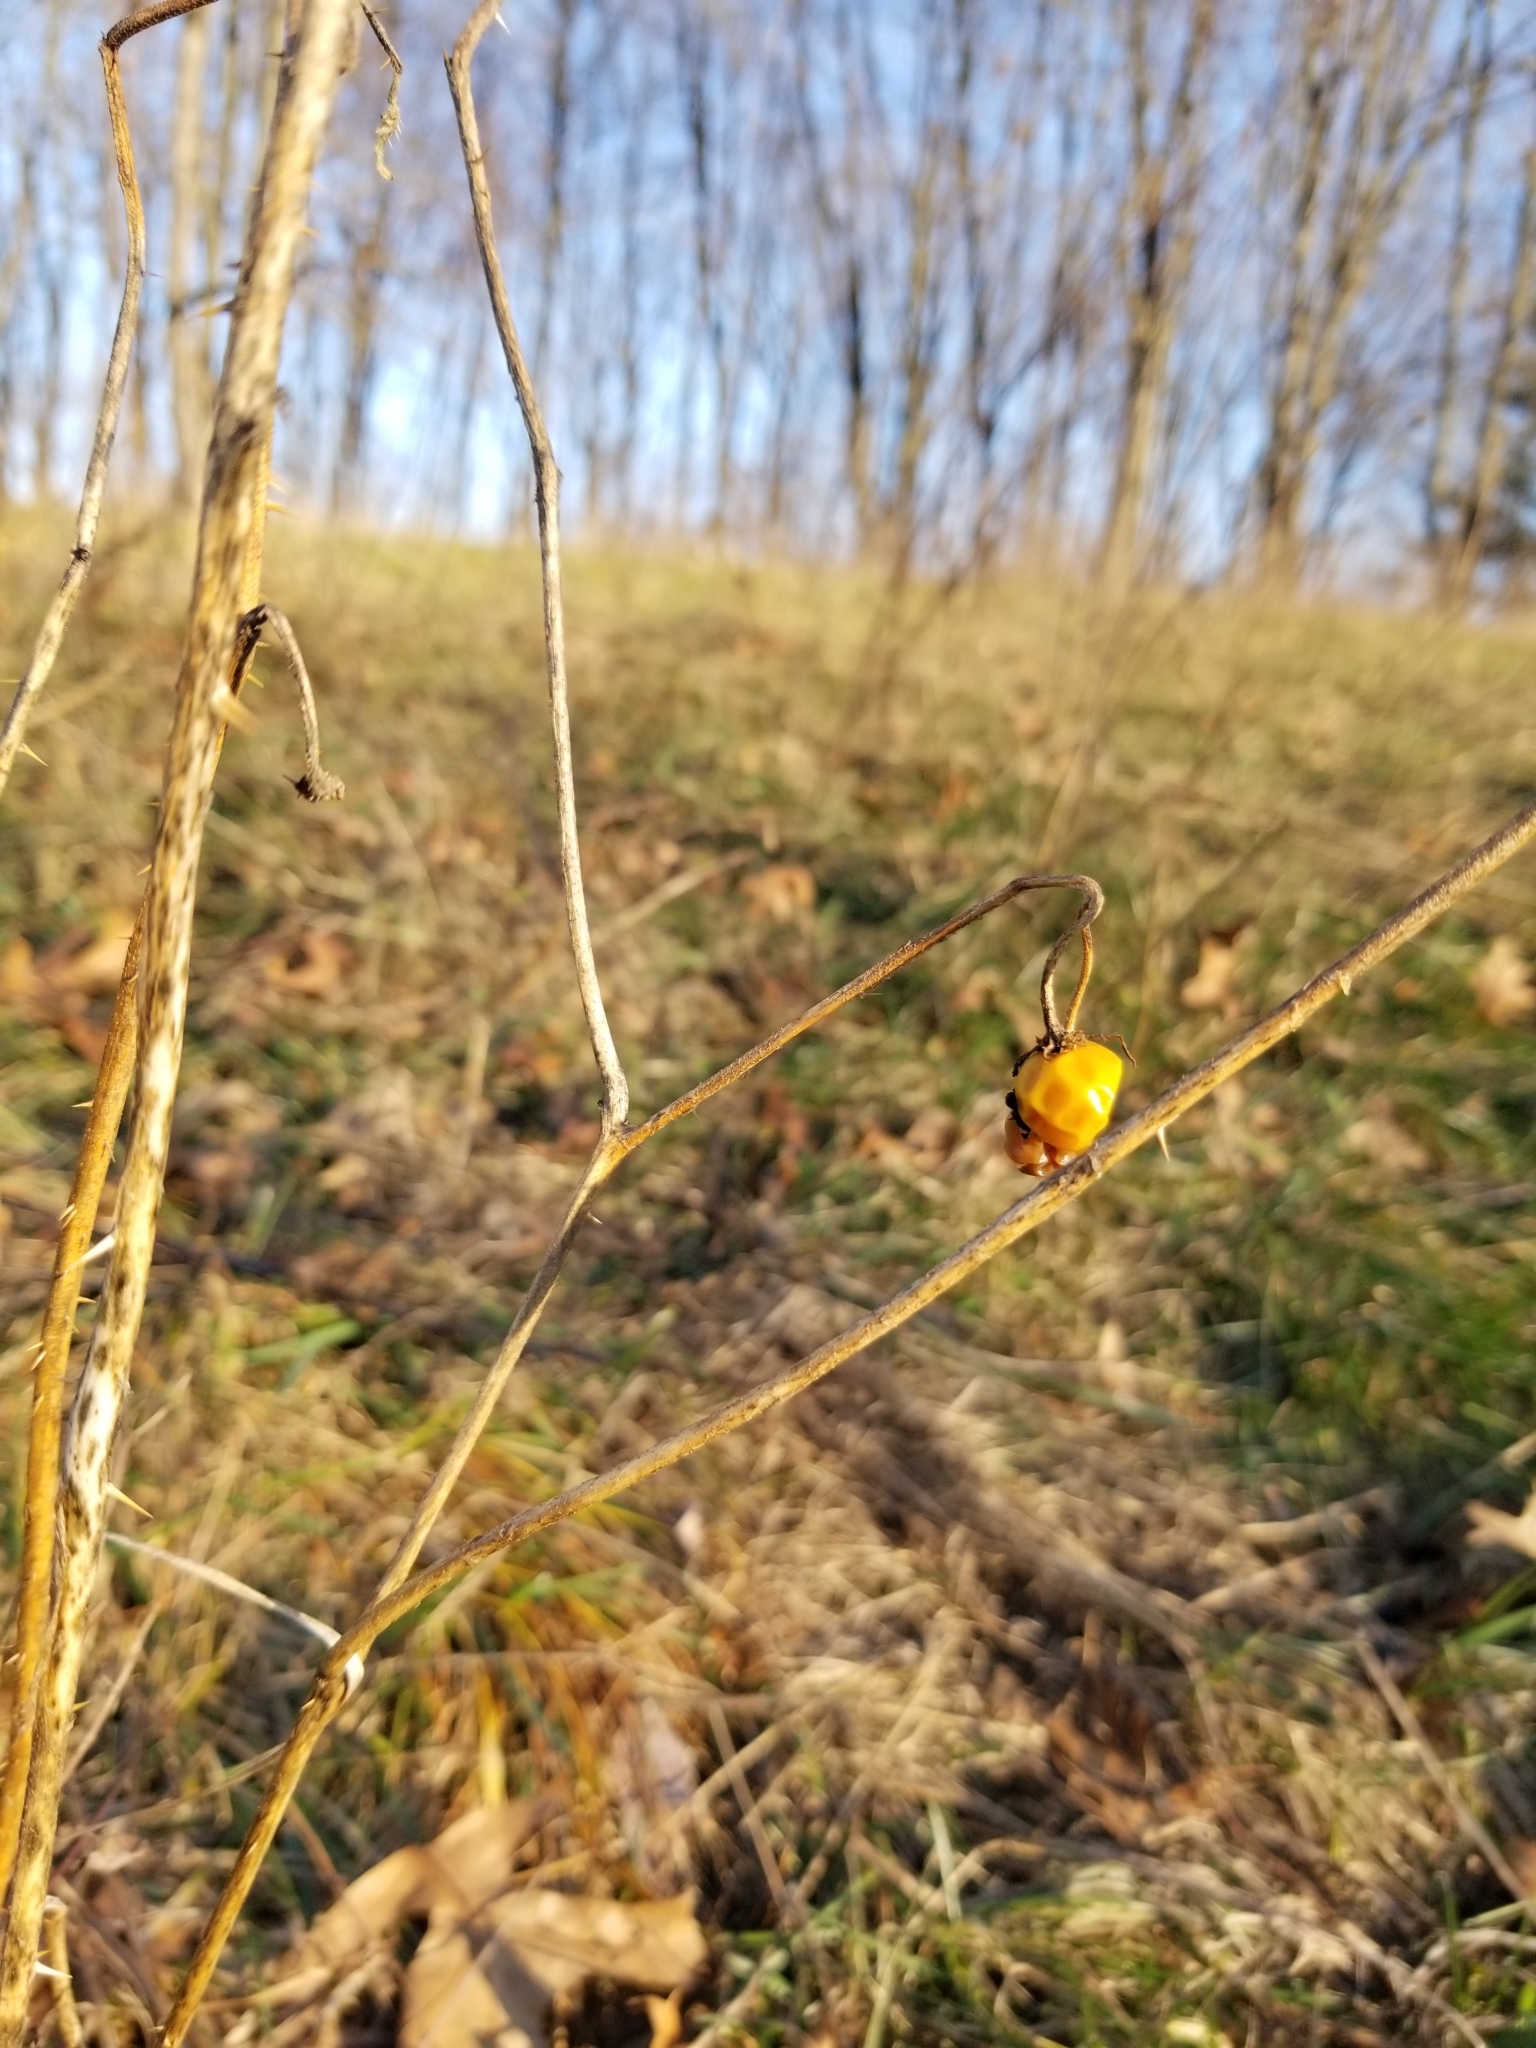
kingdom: Plantae
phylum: Tracheophyta
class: Magnoliopsida
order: Solanales
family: Solanaceae
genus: Solanum
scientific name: Solanum carolinense
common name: Horse-nettle
